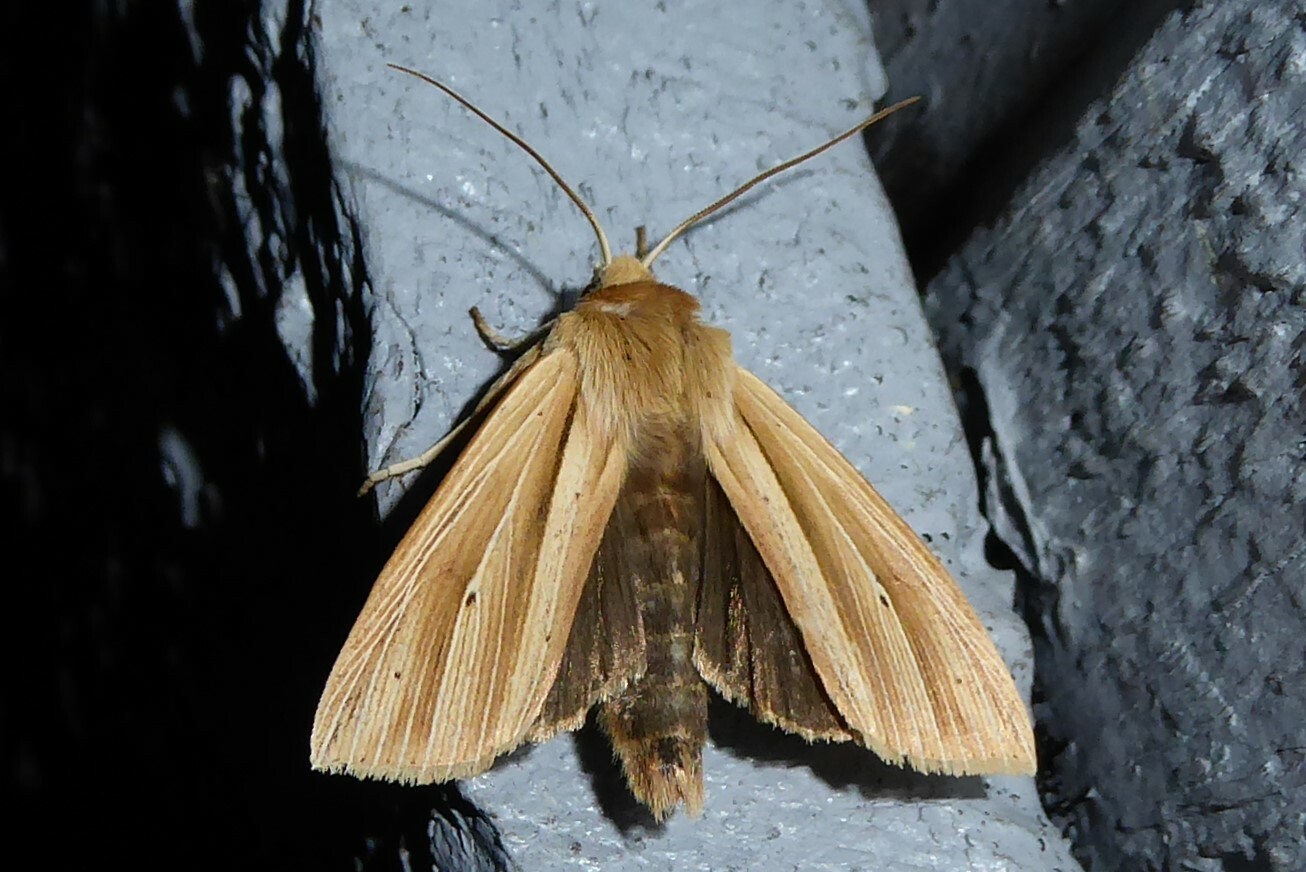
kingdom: Animalia
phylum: Arthropoda
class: Insecta
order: Lepidoptera
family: Noctuidae
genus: Ichneutica
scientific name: Ichneutica sulcana
